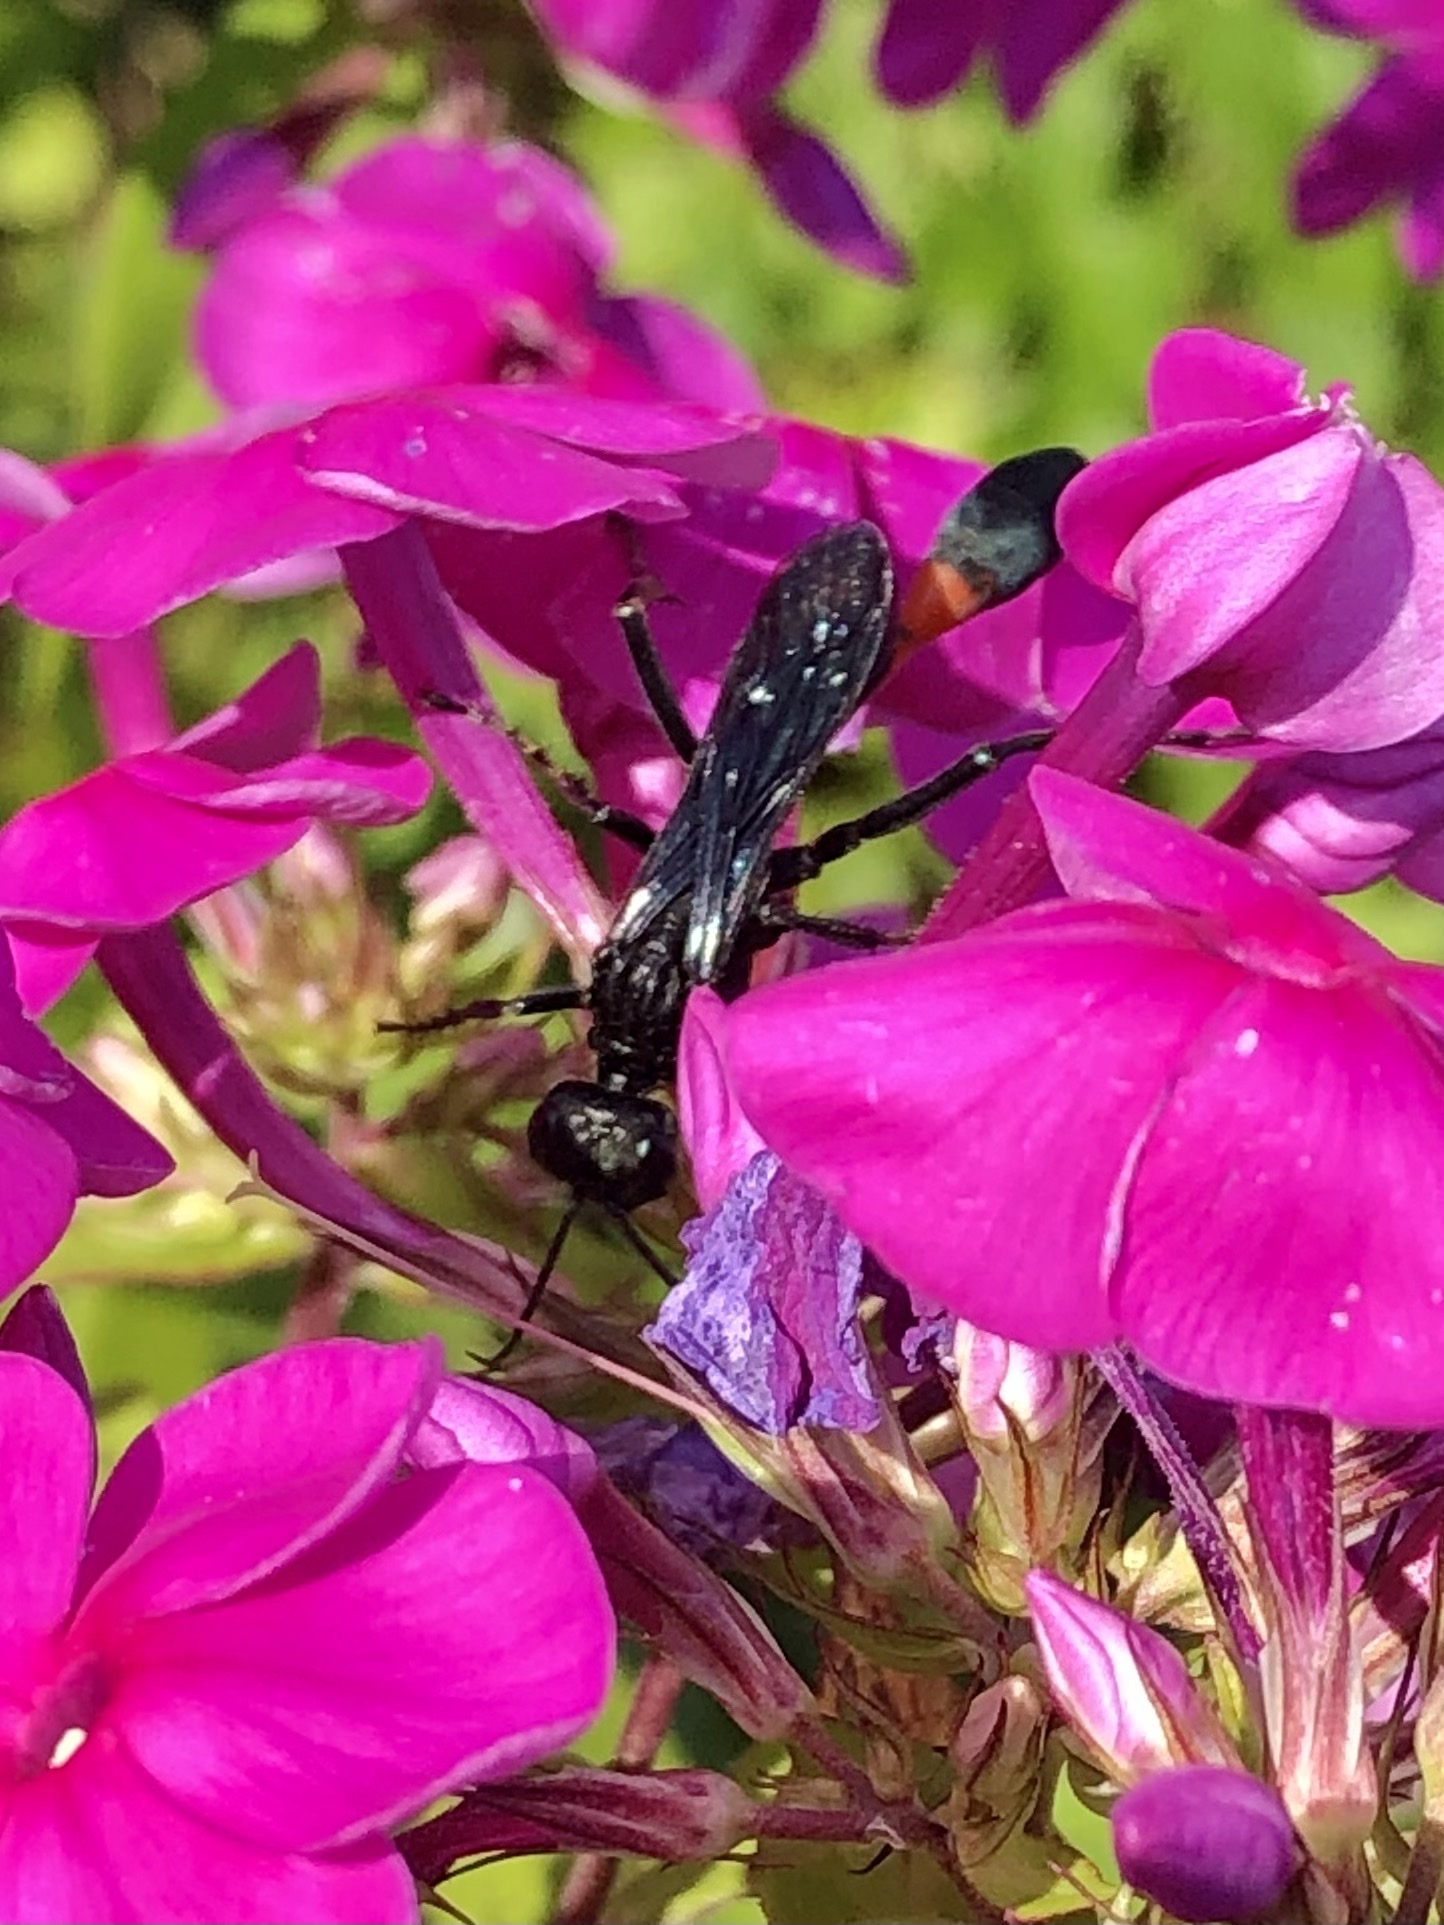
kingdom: Animalia
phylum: Arthropoda
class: Insecta
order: Hymenoptera
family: Sphecidae
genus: Ammophila
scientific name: Ammophila nigricans
